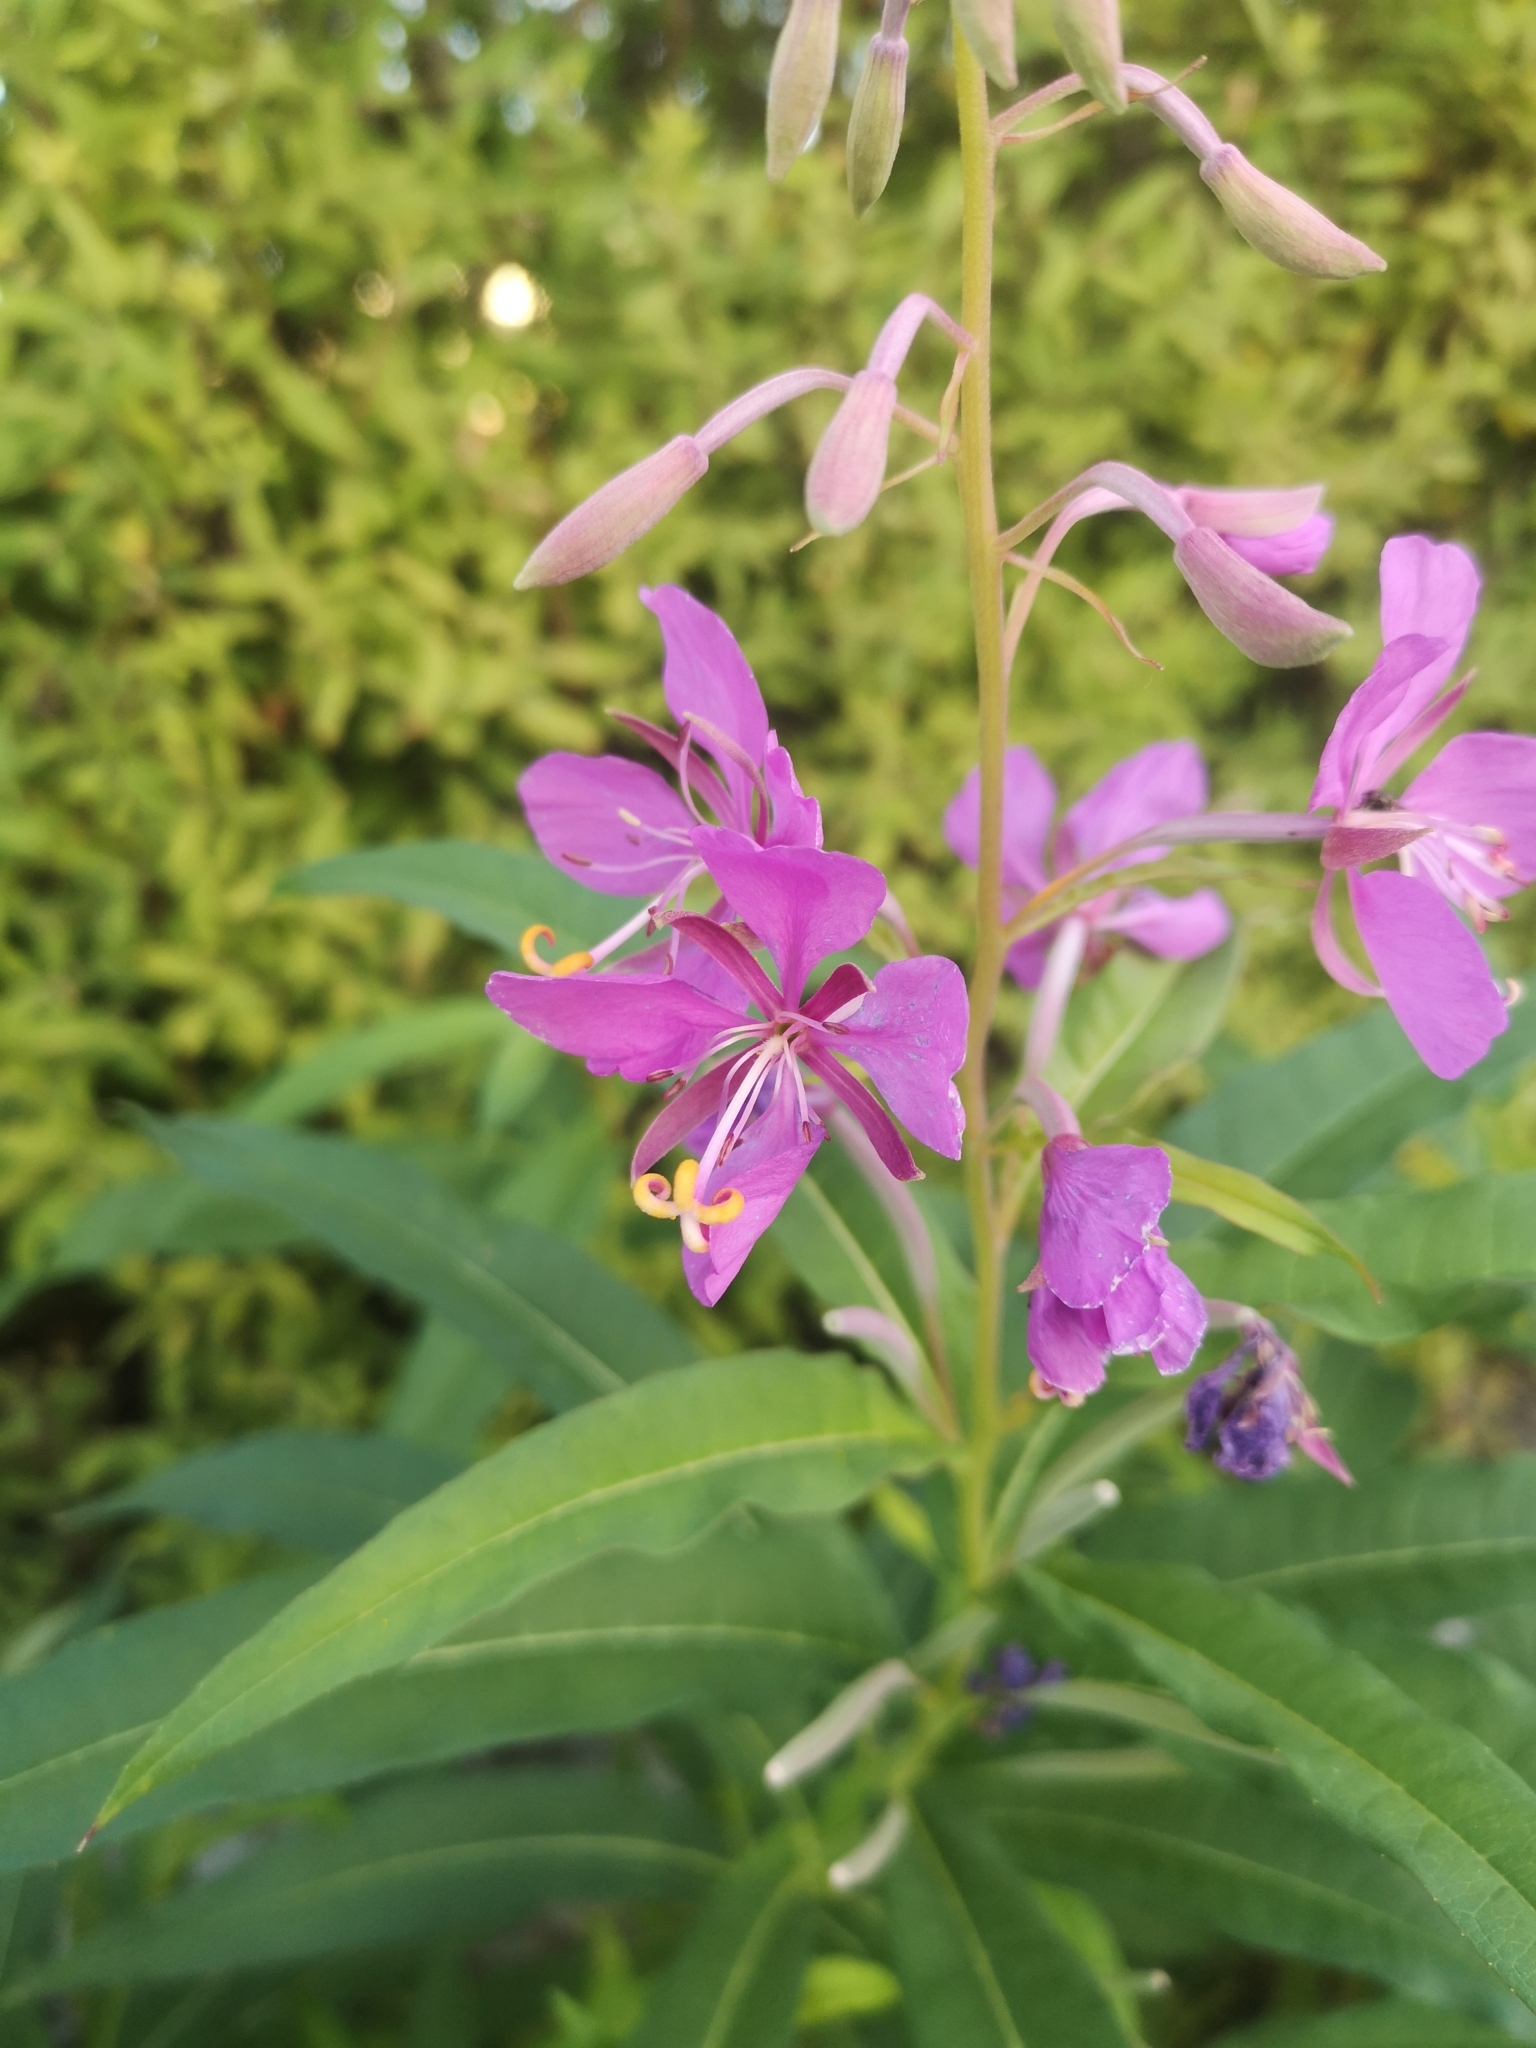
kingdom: Plantae
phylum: Tracheophyta
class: Magnoliopsida
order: Myrtales
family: Onagraceae
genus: Chamaenerion
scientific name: Chamaenerion angustifolium
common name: Fireweed
